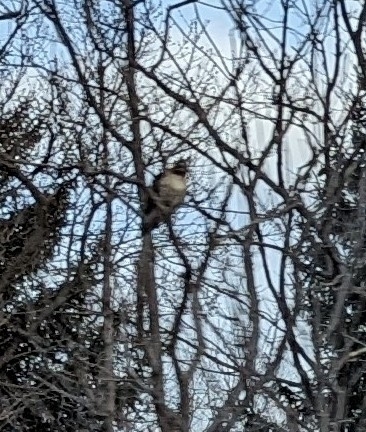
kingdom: Animalia
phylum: Chordata
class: Aves
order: Accipitriformes
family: Accipitridae
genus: Buteo
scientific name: Buteo jamaicensis
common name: Red-tailed hawk
